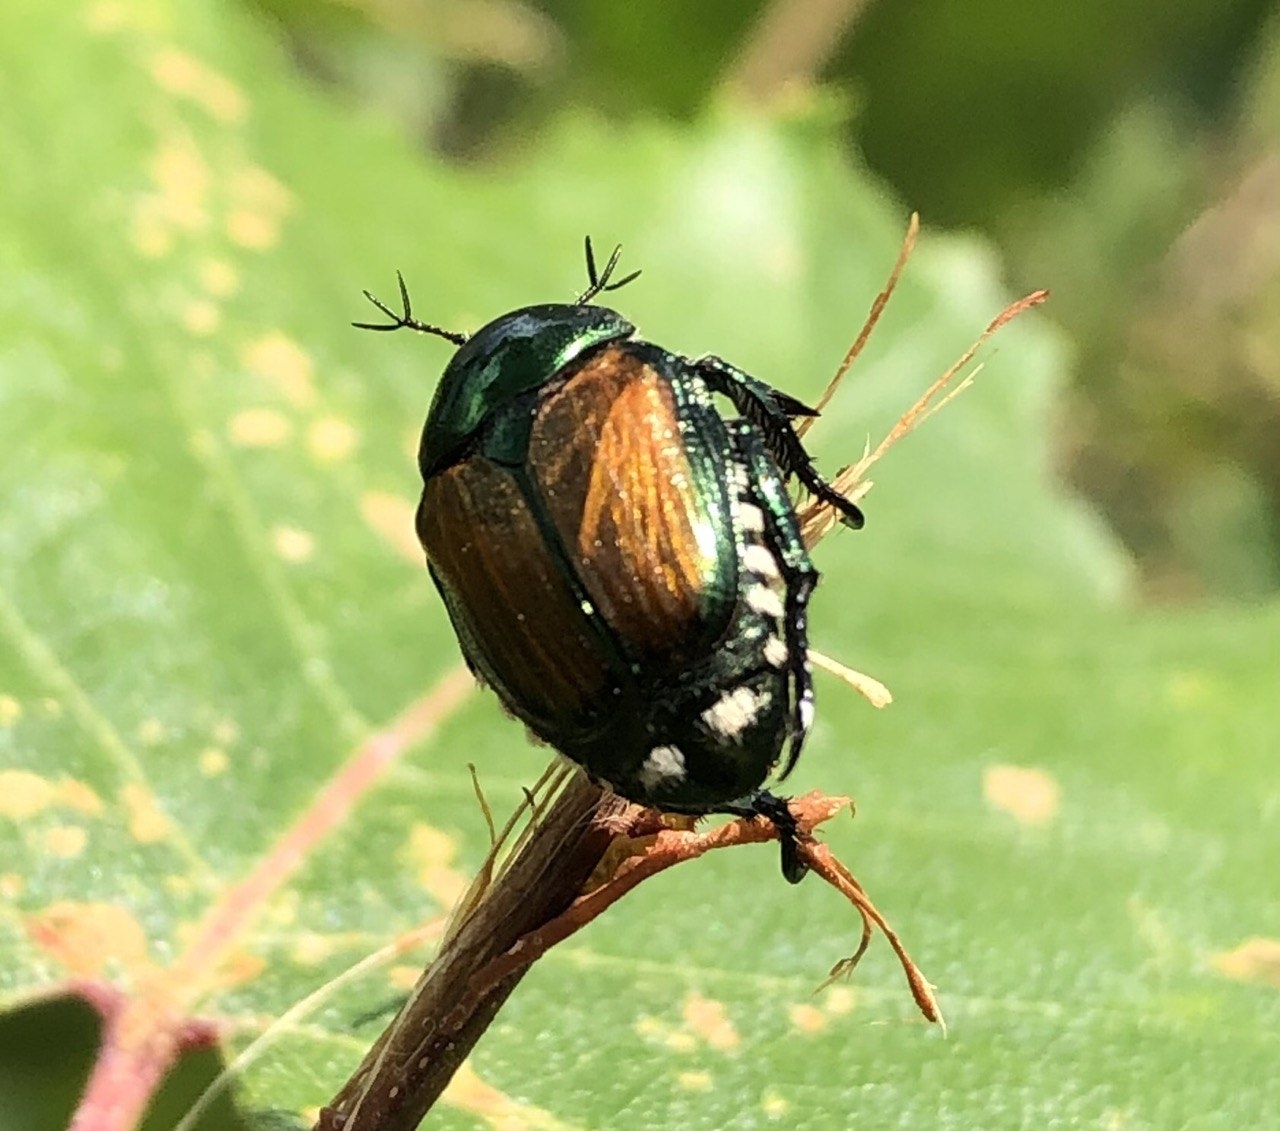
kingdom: Animalia
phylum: Arthropoda
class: Insecta
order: Coleoptera
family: Scarabaeidae
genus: Popillia
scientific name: Popillia japonica
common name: Japanese beetle
